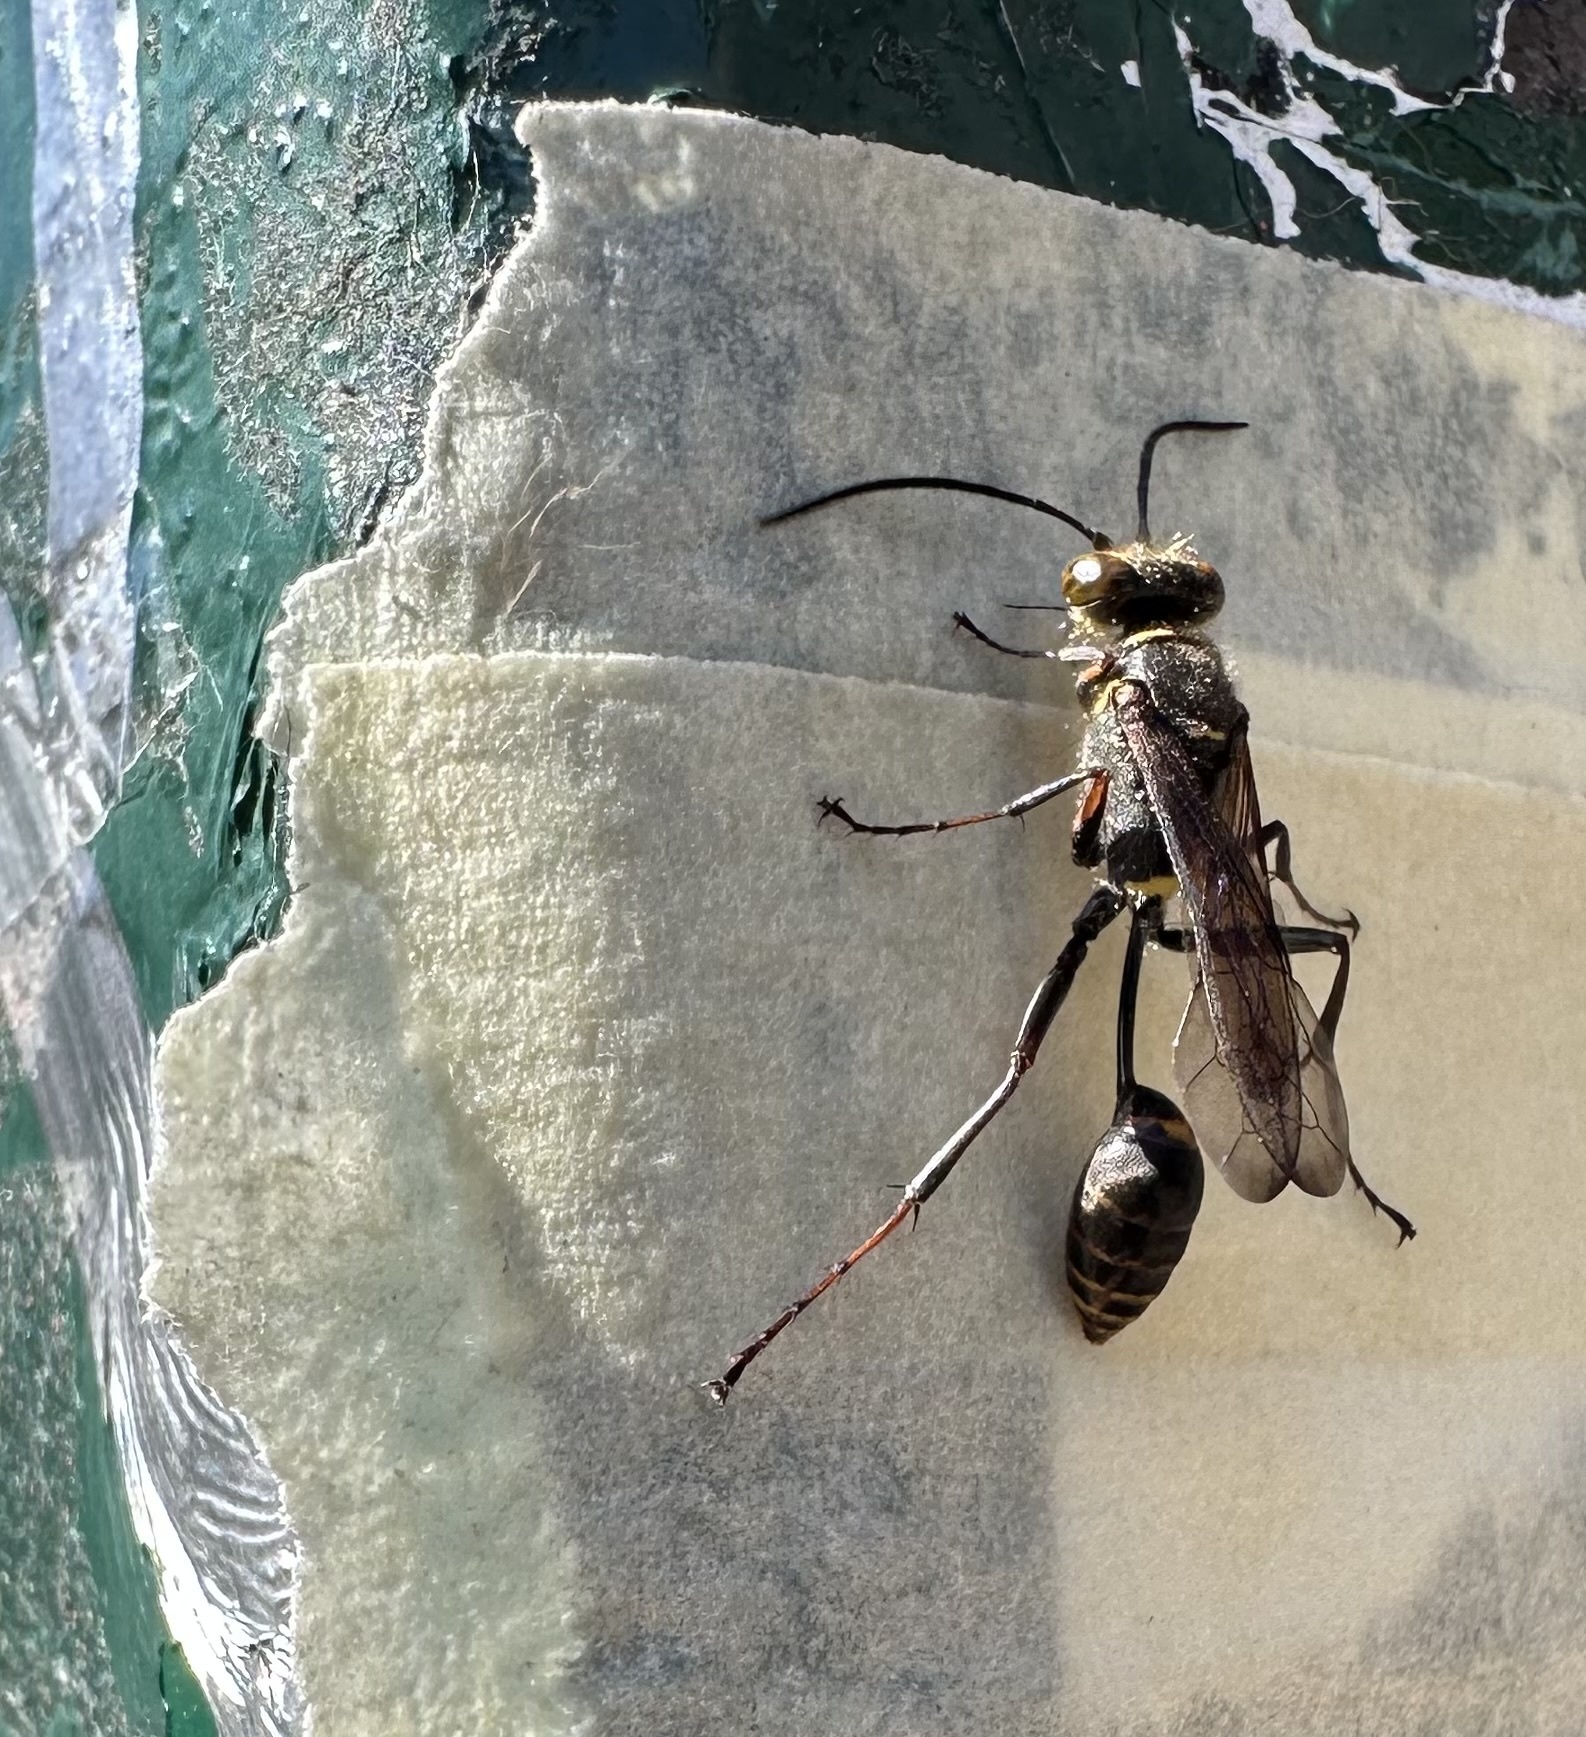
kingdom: Animalia
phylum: Arthropoda
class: Insecta
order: Hymenoptera
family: Sphecidae
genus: Sceliphron
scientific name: Sceliphron curvatum
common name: Pèlopèe
